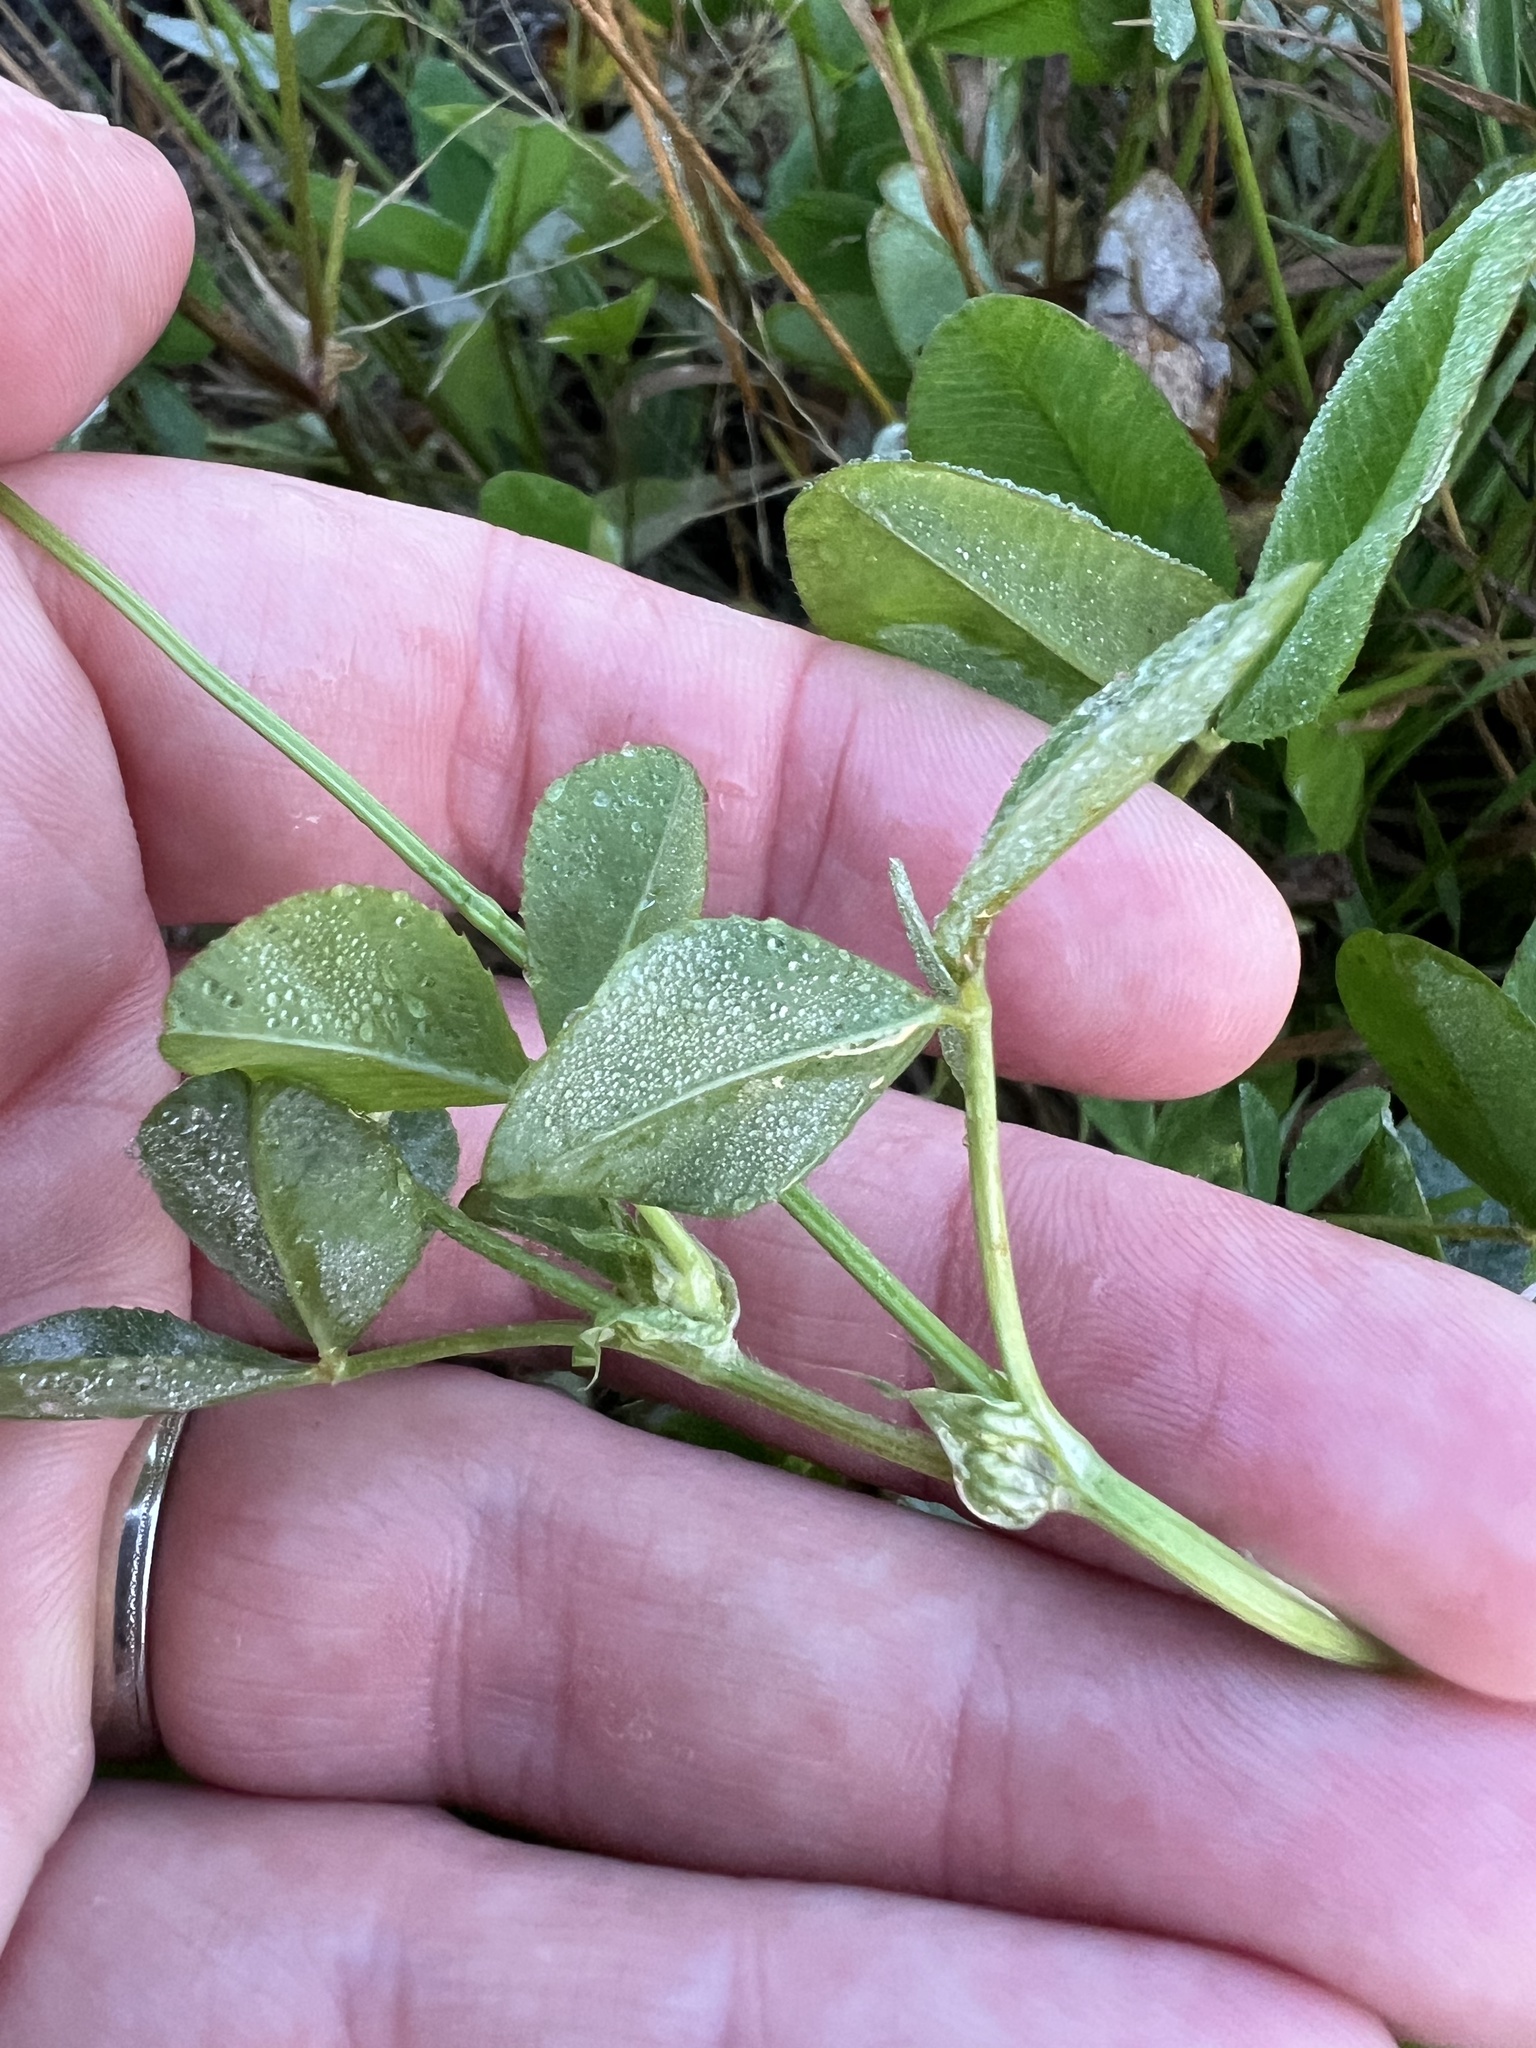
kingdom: Plantae
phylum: Tracheophyta
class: Magnoliopsida
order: Fabales
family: Fabaceae
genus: Trifolium
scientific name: Trifolium hybridum
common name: Alsike clover
